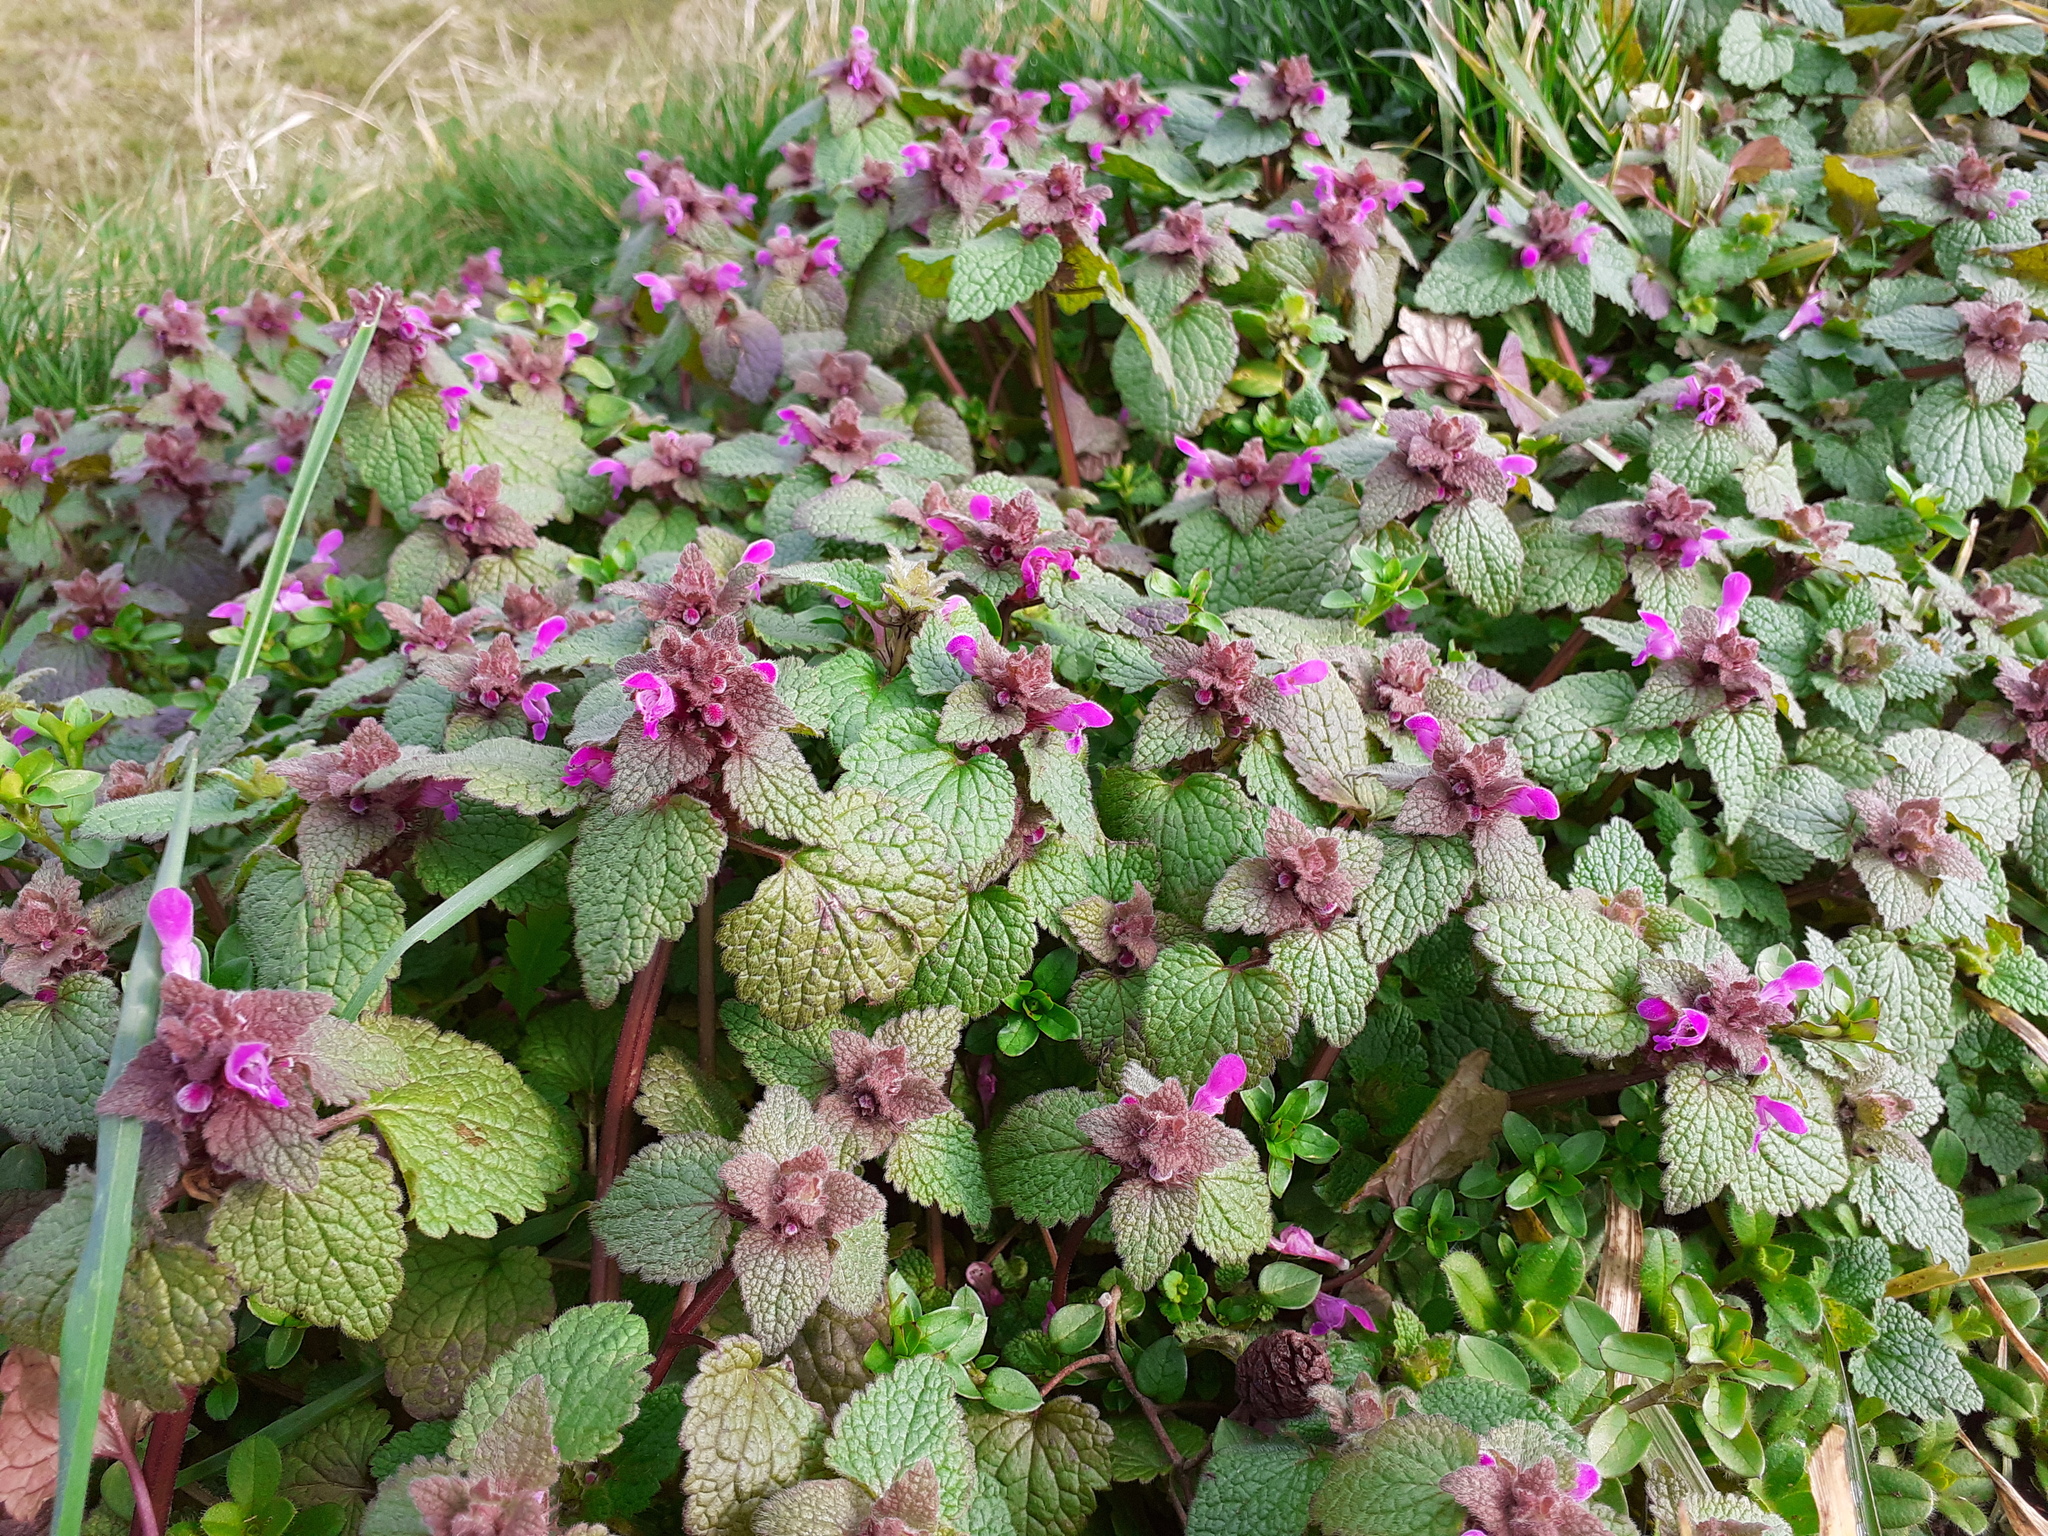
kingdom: Plantae
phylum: Tracheophyta
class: Magnoliopsida
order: Lamiales
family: Lamiaceae
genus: Lamium
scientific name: Lamium purpureum
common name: Red dead-nettle
